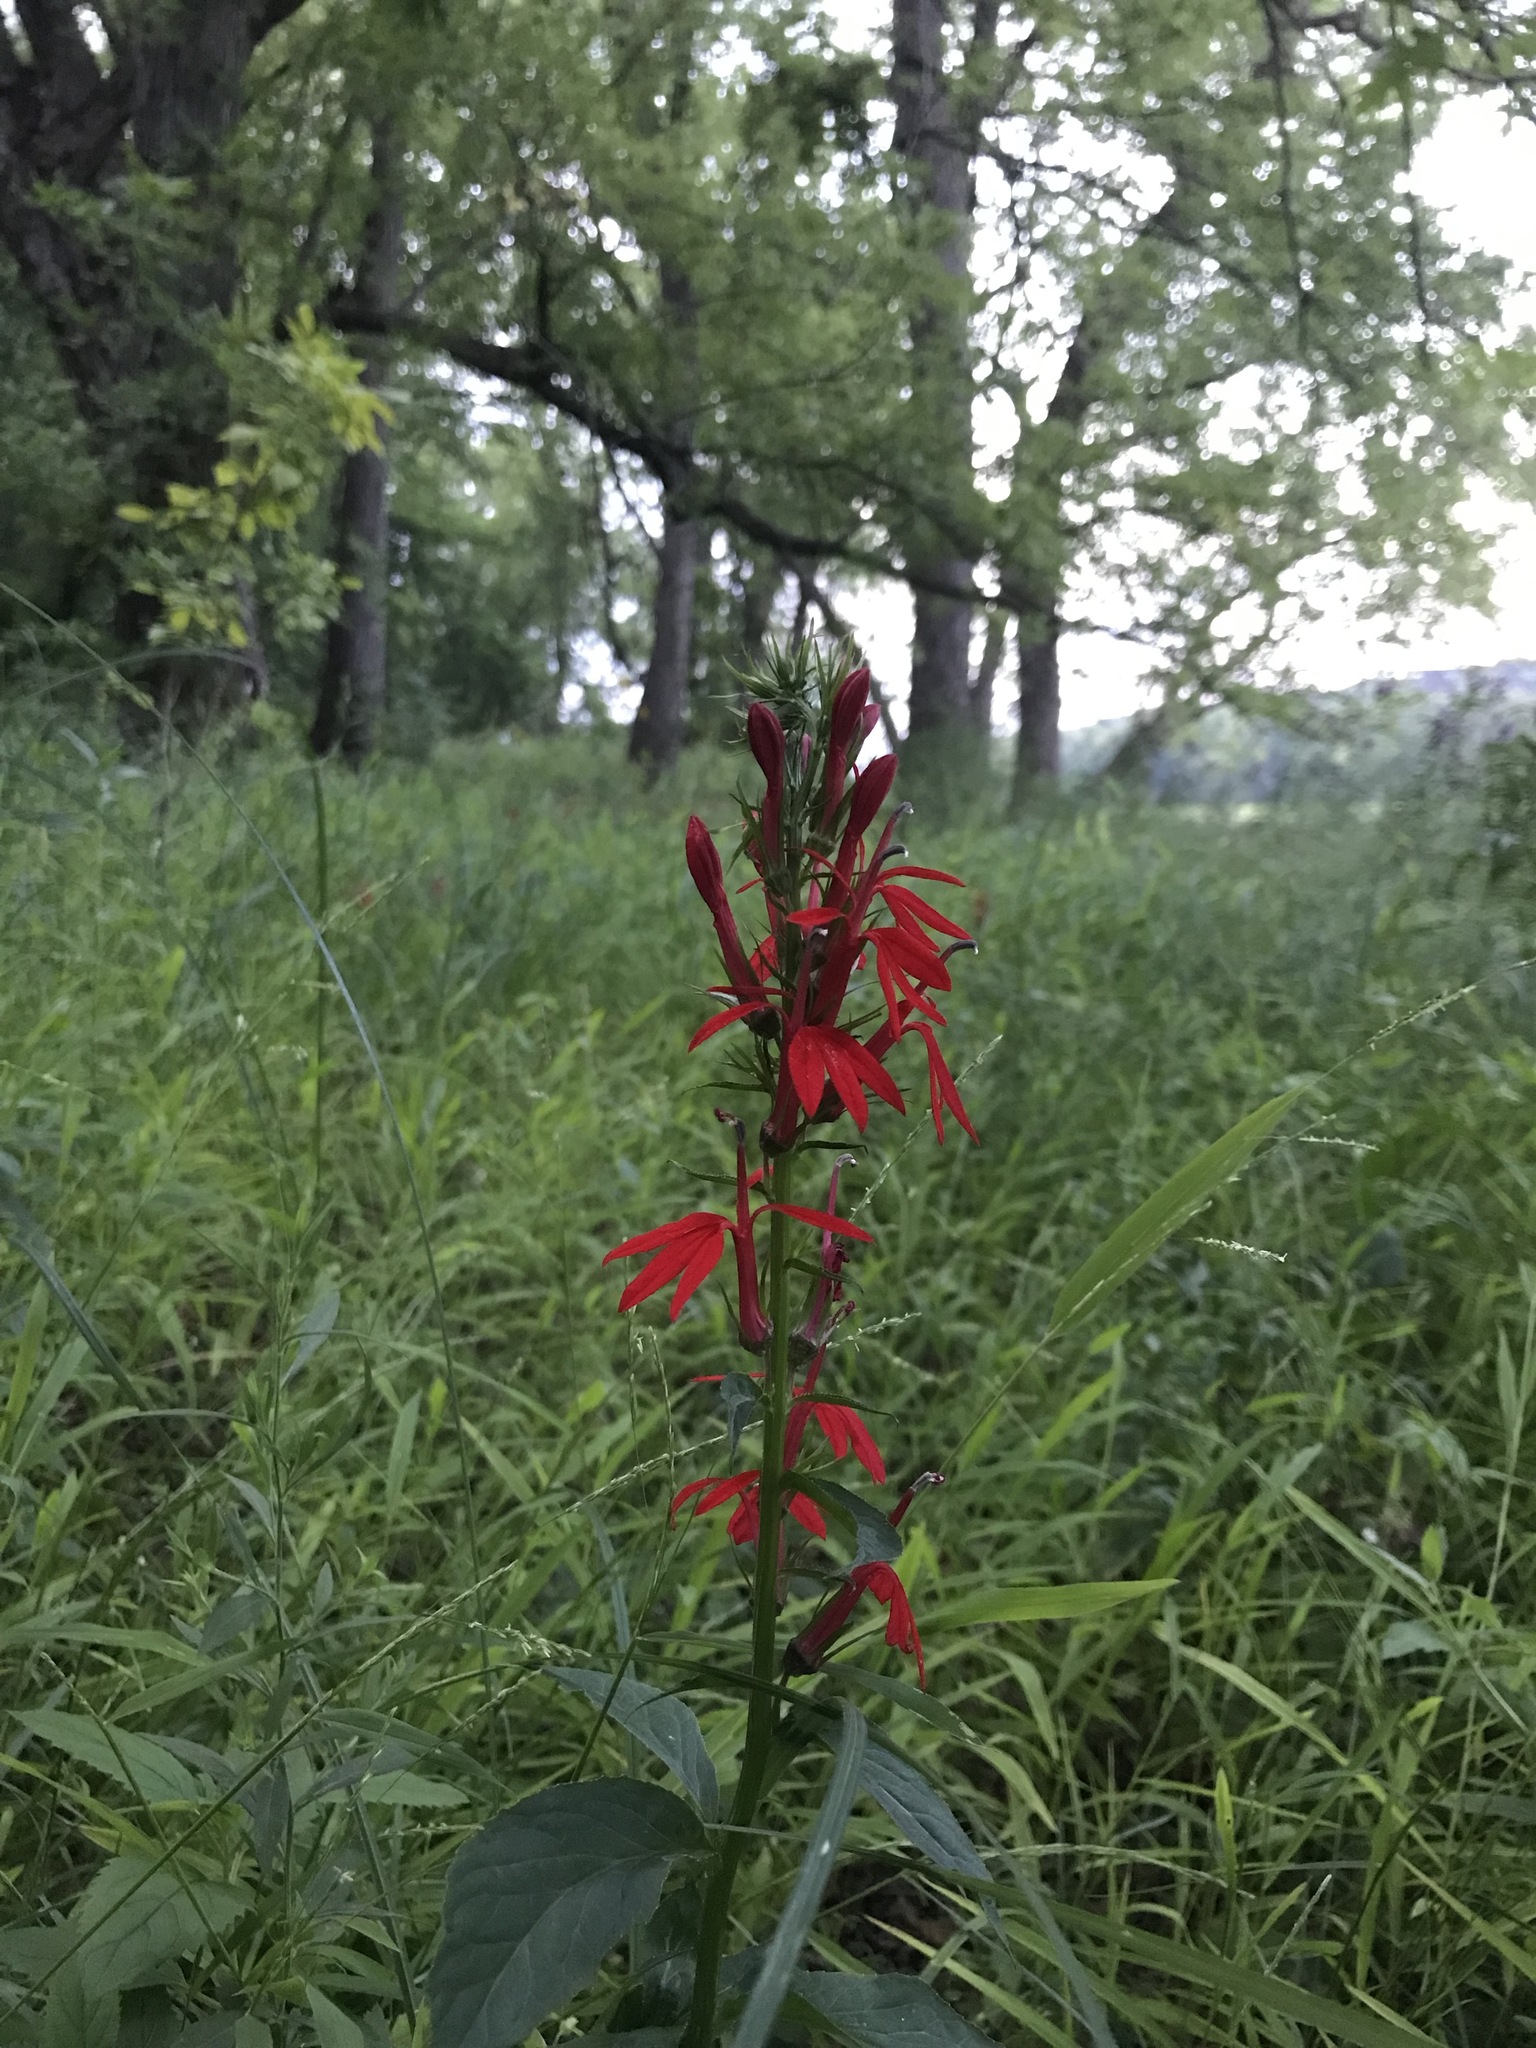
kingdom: Plantae
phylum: Tracheophyta
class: Magnoliopsida
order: Asterales
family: Campanulaceae
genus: Lobelia
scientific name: Lobelia cardinalis
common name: Cardinal flower
